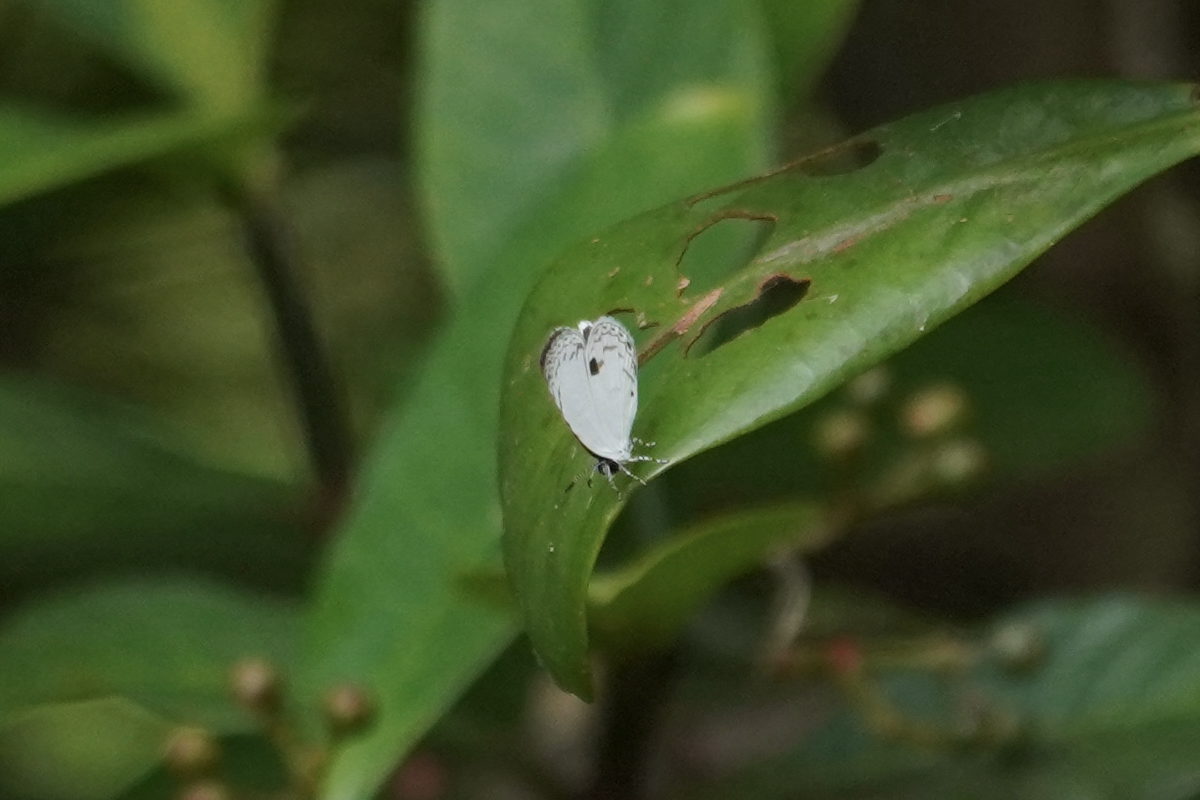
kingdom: Animalia
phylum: Arthropoda
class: Insecta
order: Lepidoptera
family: Lycaenidae
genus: Neopithecops
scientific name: Neopithecops zalmora
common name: Quaker
